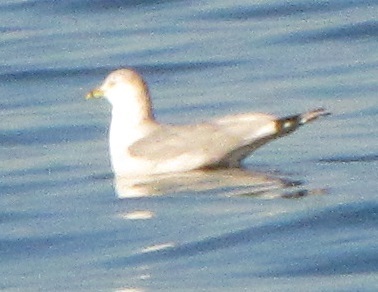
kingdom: Animalia
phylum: Chordata
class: Aves
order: Charadriiformes
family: Laridae
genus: Larus
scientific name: Larus delawarensis
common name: Ring-billed gull
